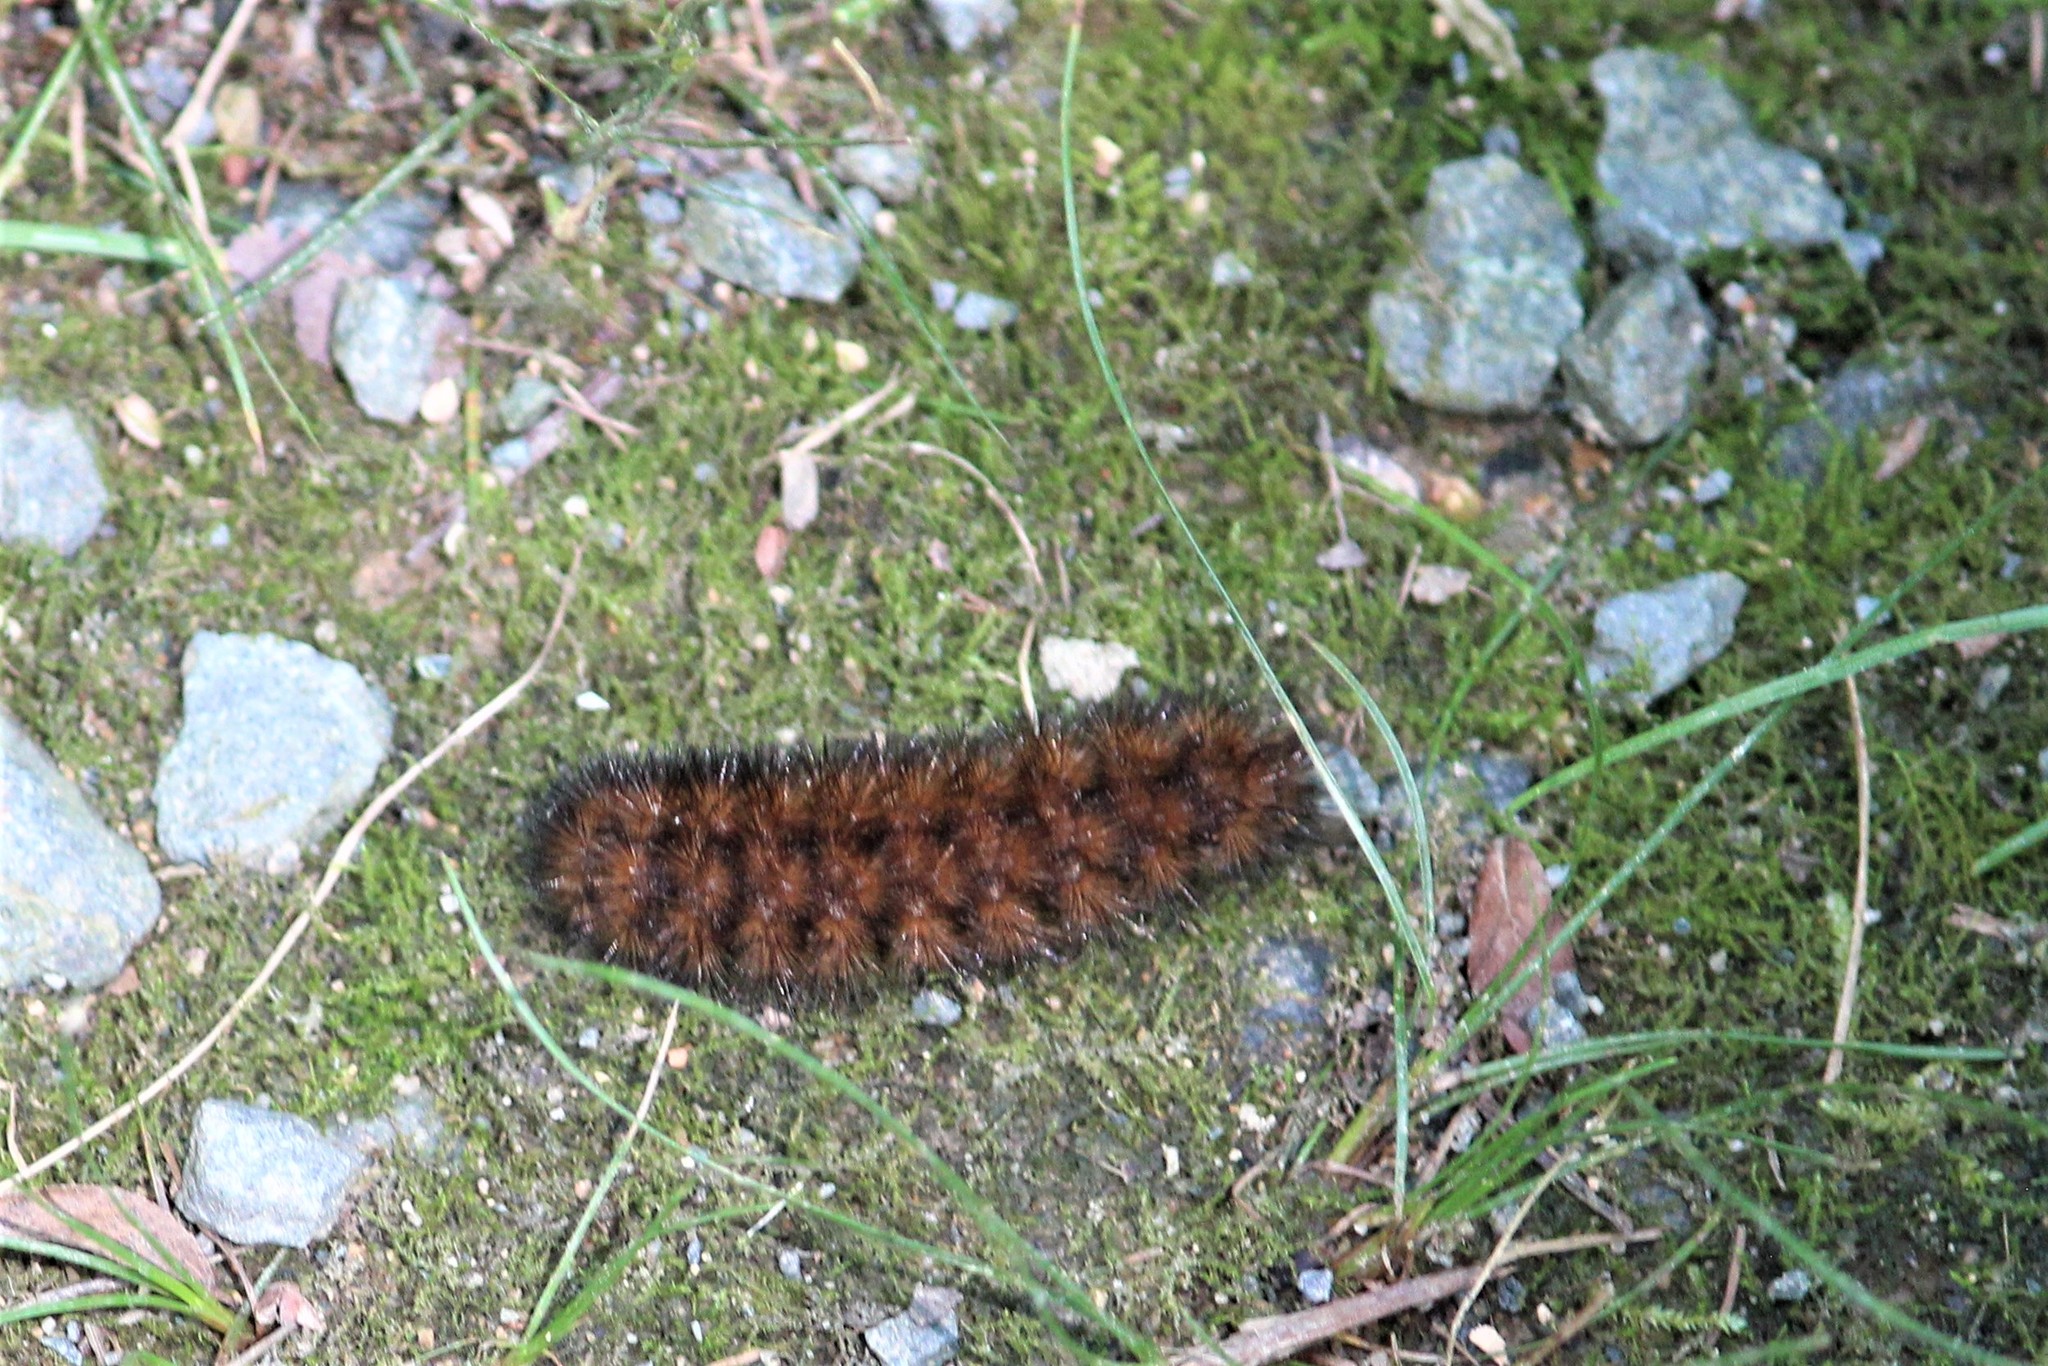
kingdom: Animalia
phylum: Arthropoda
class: Insecta
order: Lepidoptera
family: Erebidae
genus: Pyrrharctia
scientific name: Pyrrharctia isabella
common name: Isabella tiger moth
